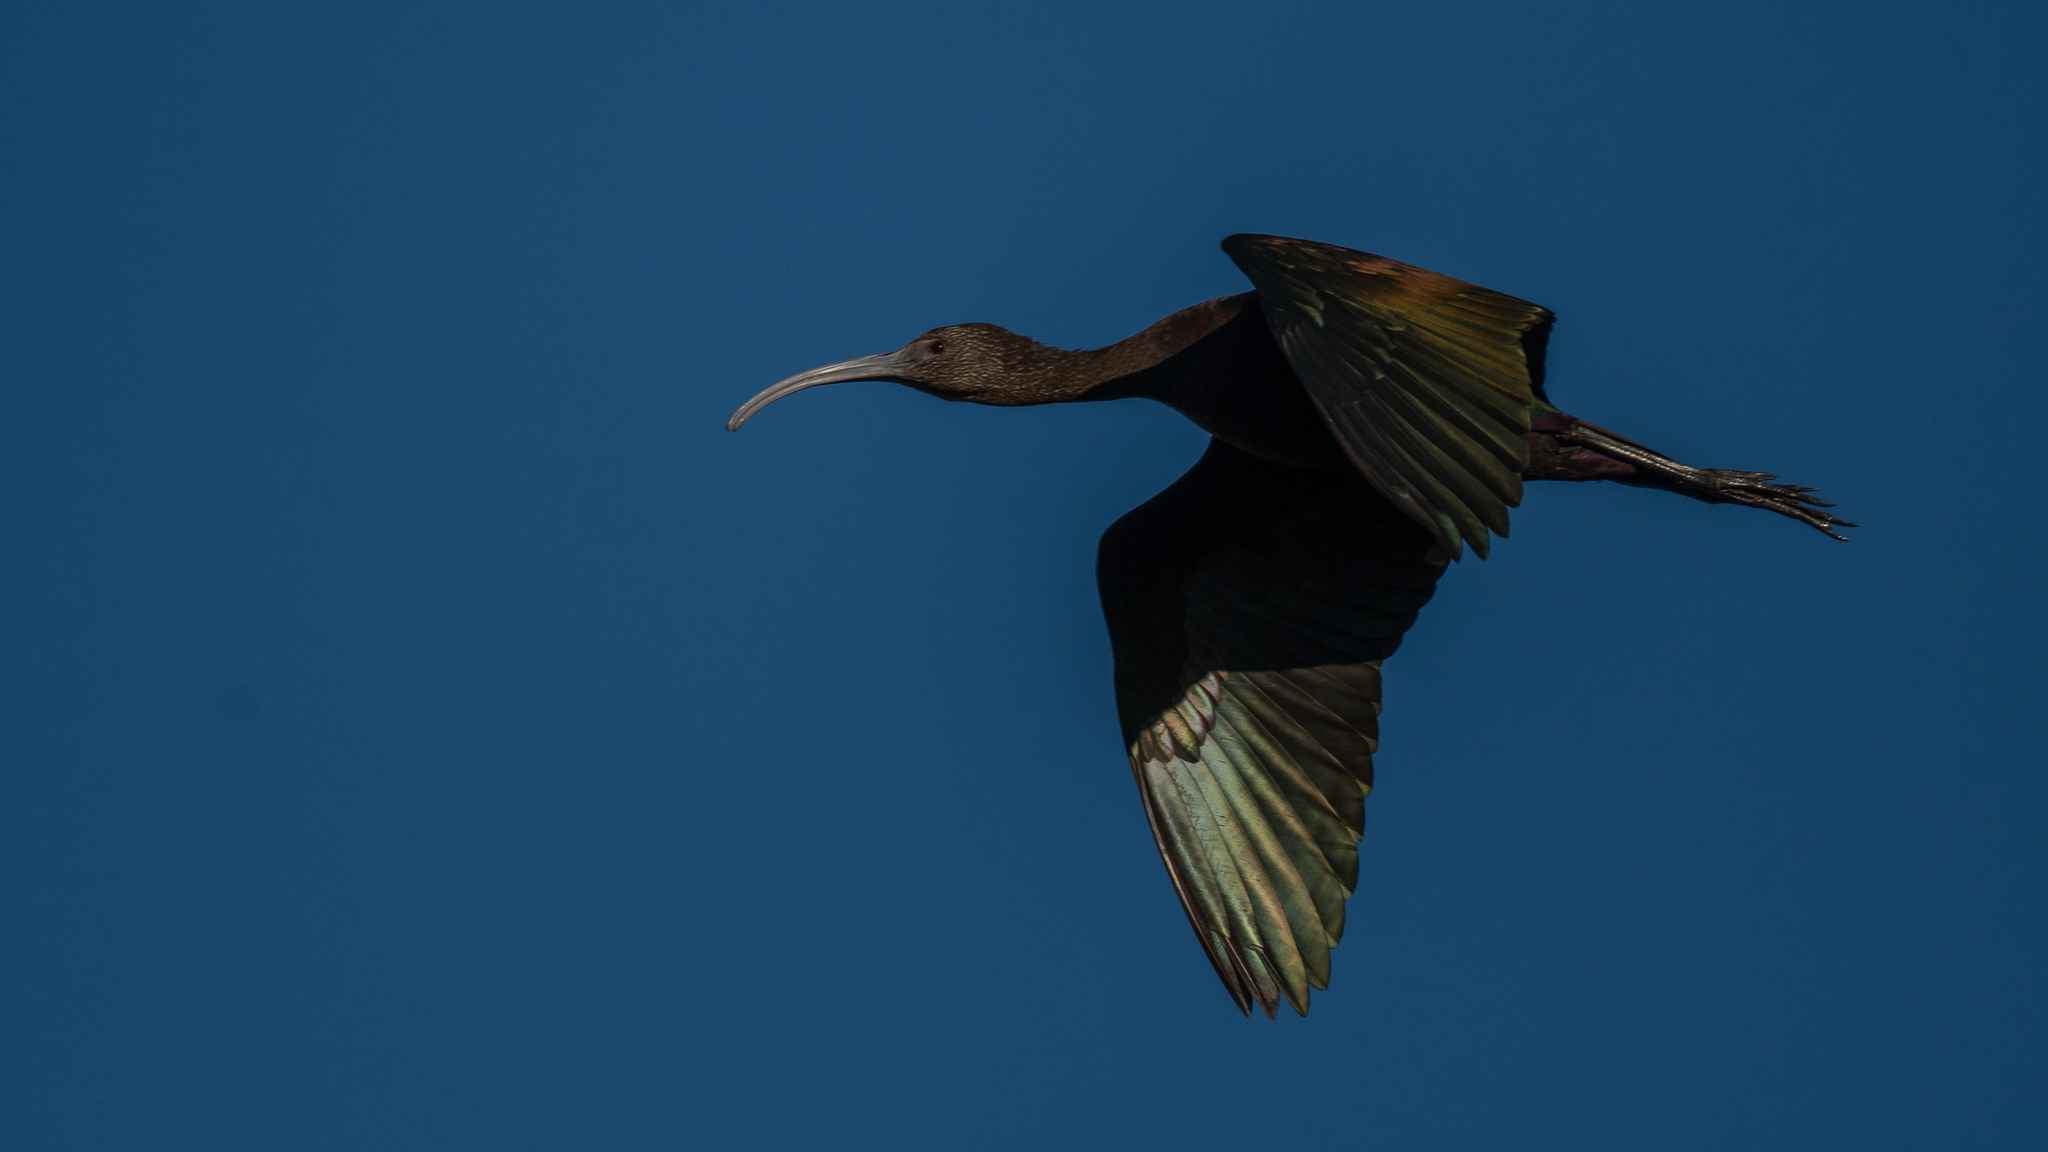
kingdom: Animalia
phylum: Chordata
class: Aves
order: Pelecaniformes
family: Threskiornithidae
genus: Plegadis
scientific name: Plegadis chihi
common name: White-faced ibis
